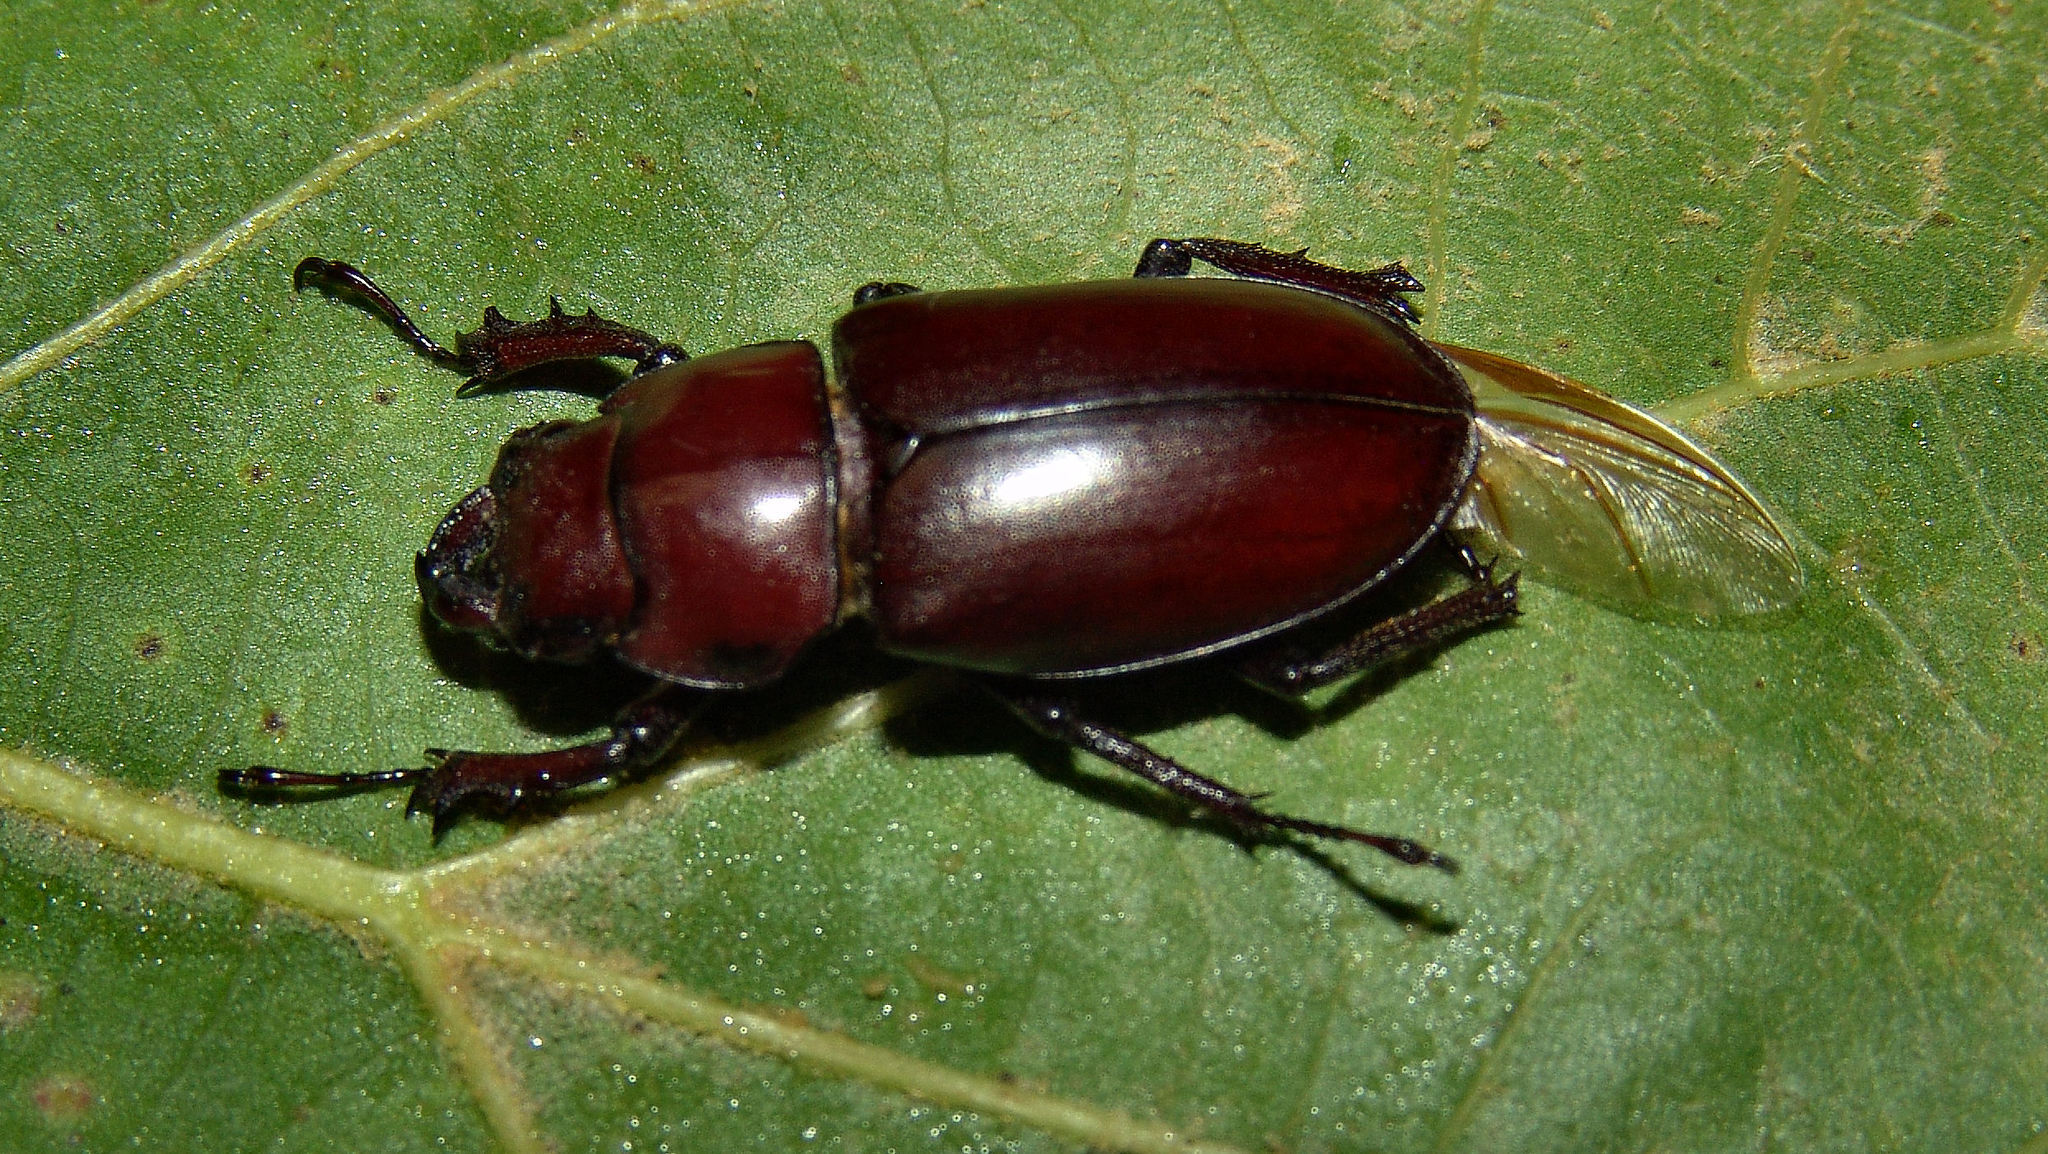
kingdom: Animalia
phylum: Arthropoda
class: Insecta
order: Coleoptera
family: Lucanidae
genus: Lucanus
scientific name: Lucanus elaphus
